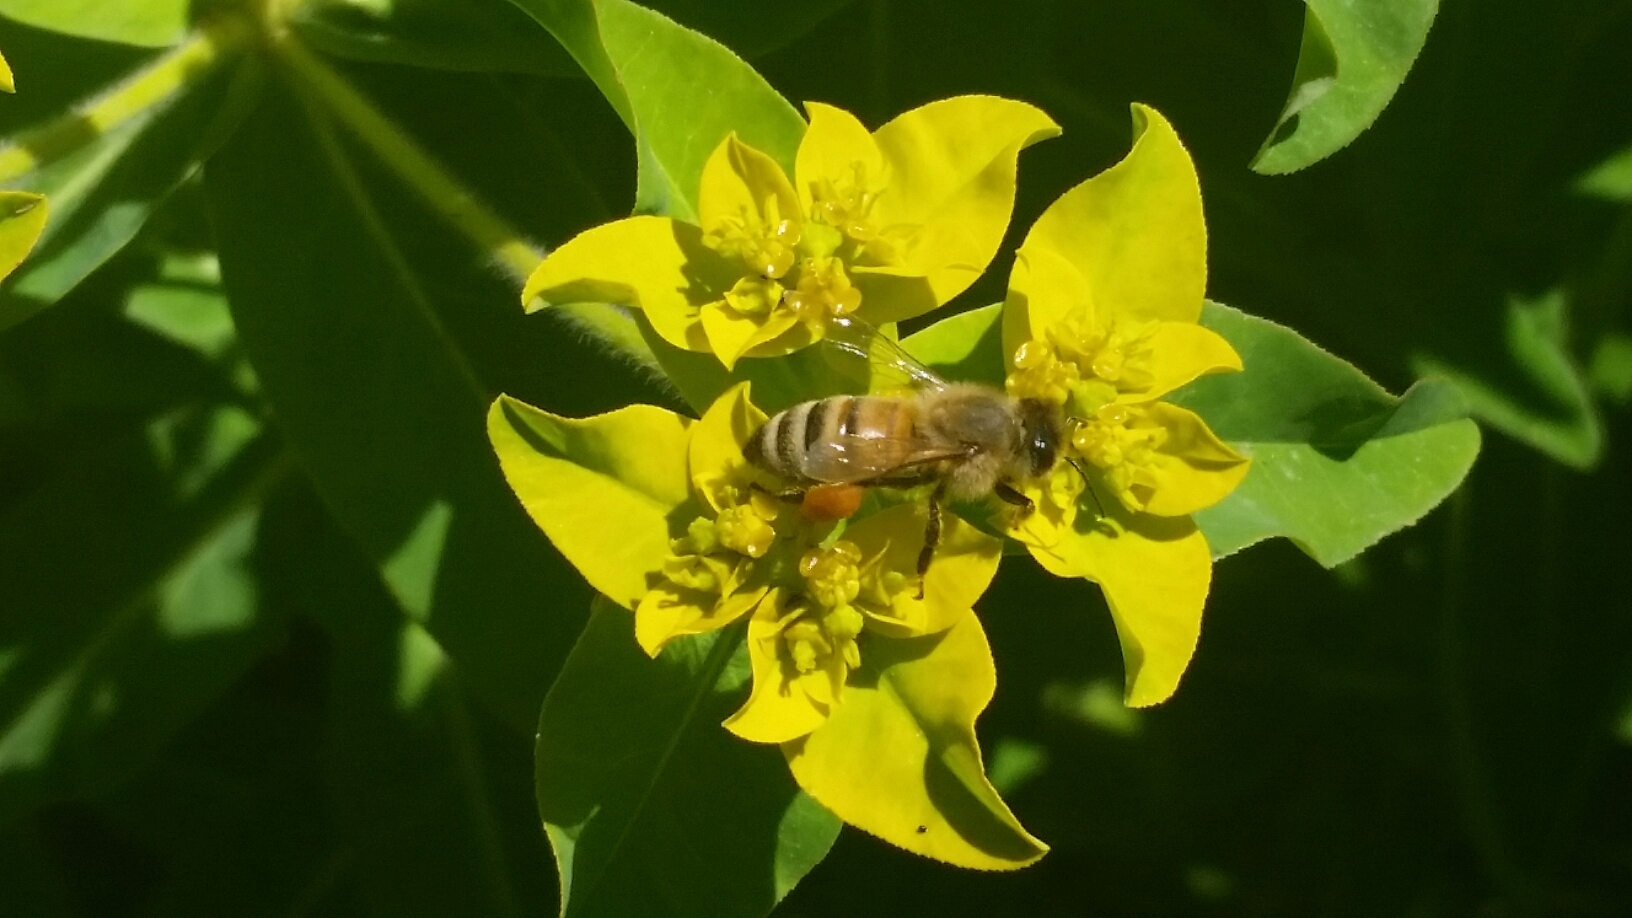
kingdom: Animalia
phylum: Arthropoda
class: Insecta
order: Hymenoptera
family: Apidae
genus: Apis
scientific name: Apis mellifera
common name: Honey bee
